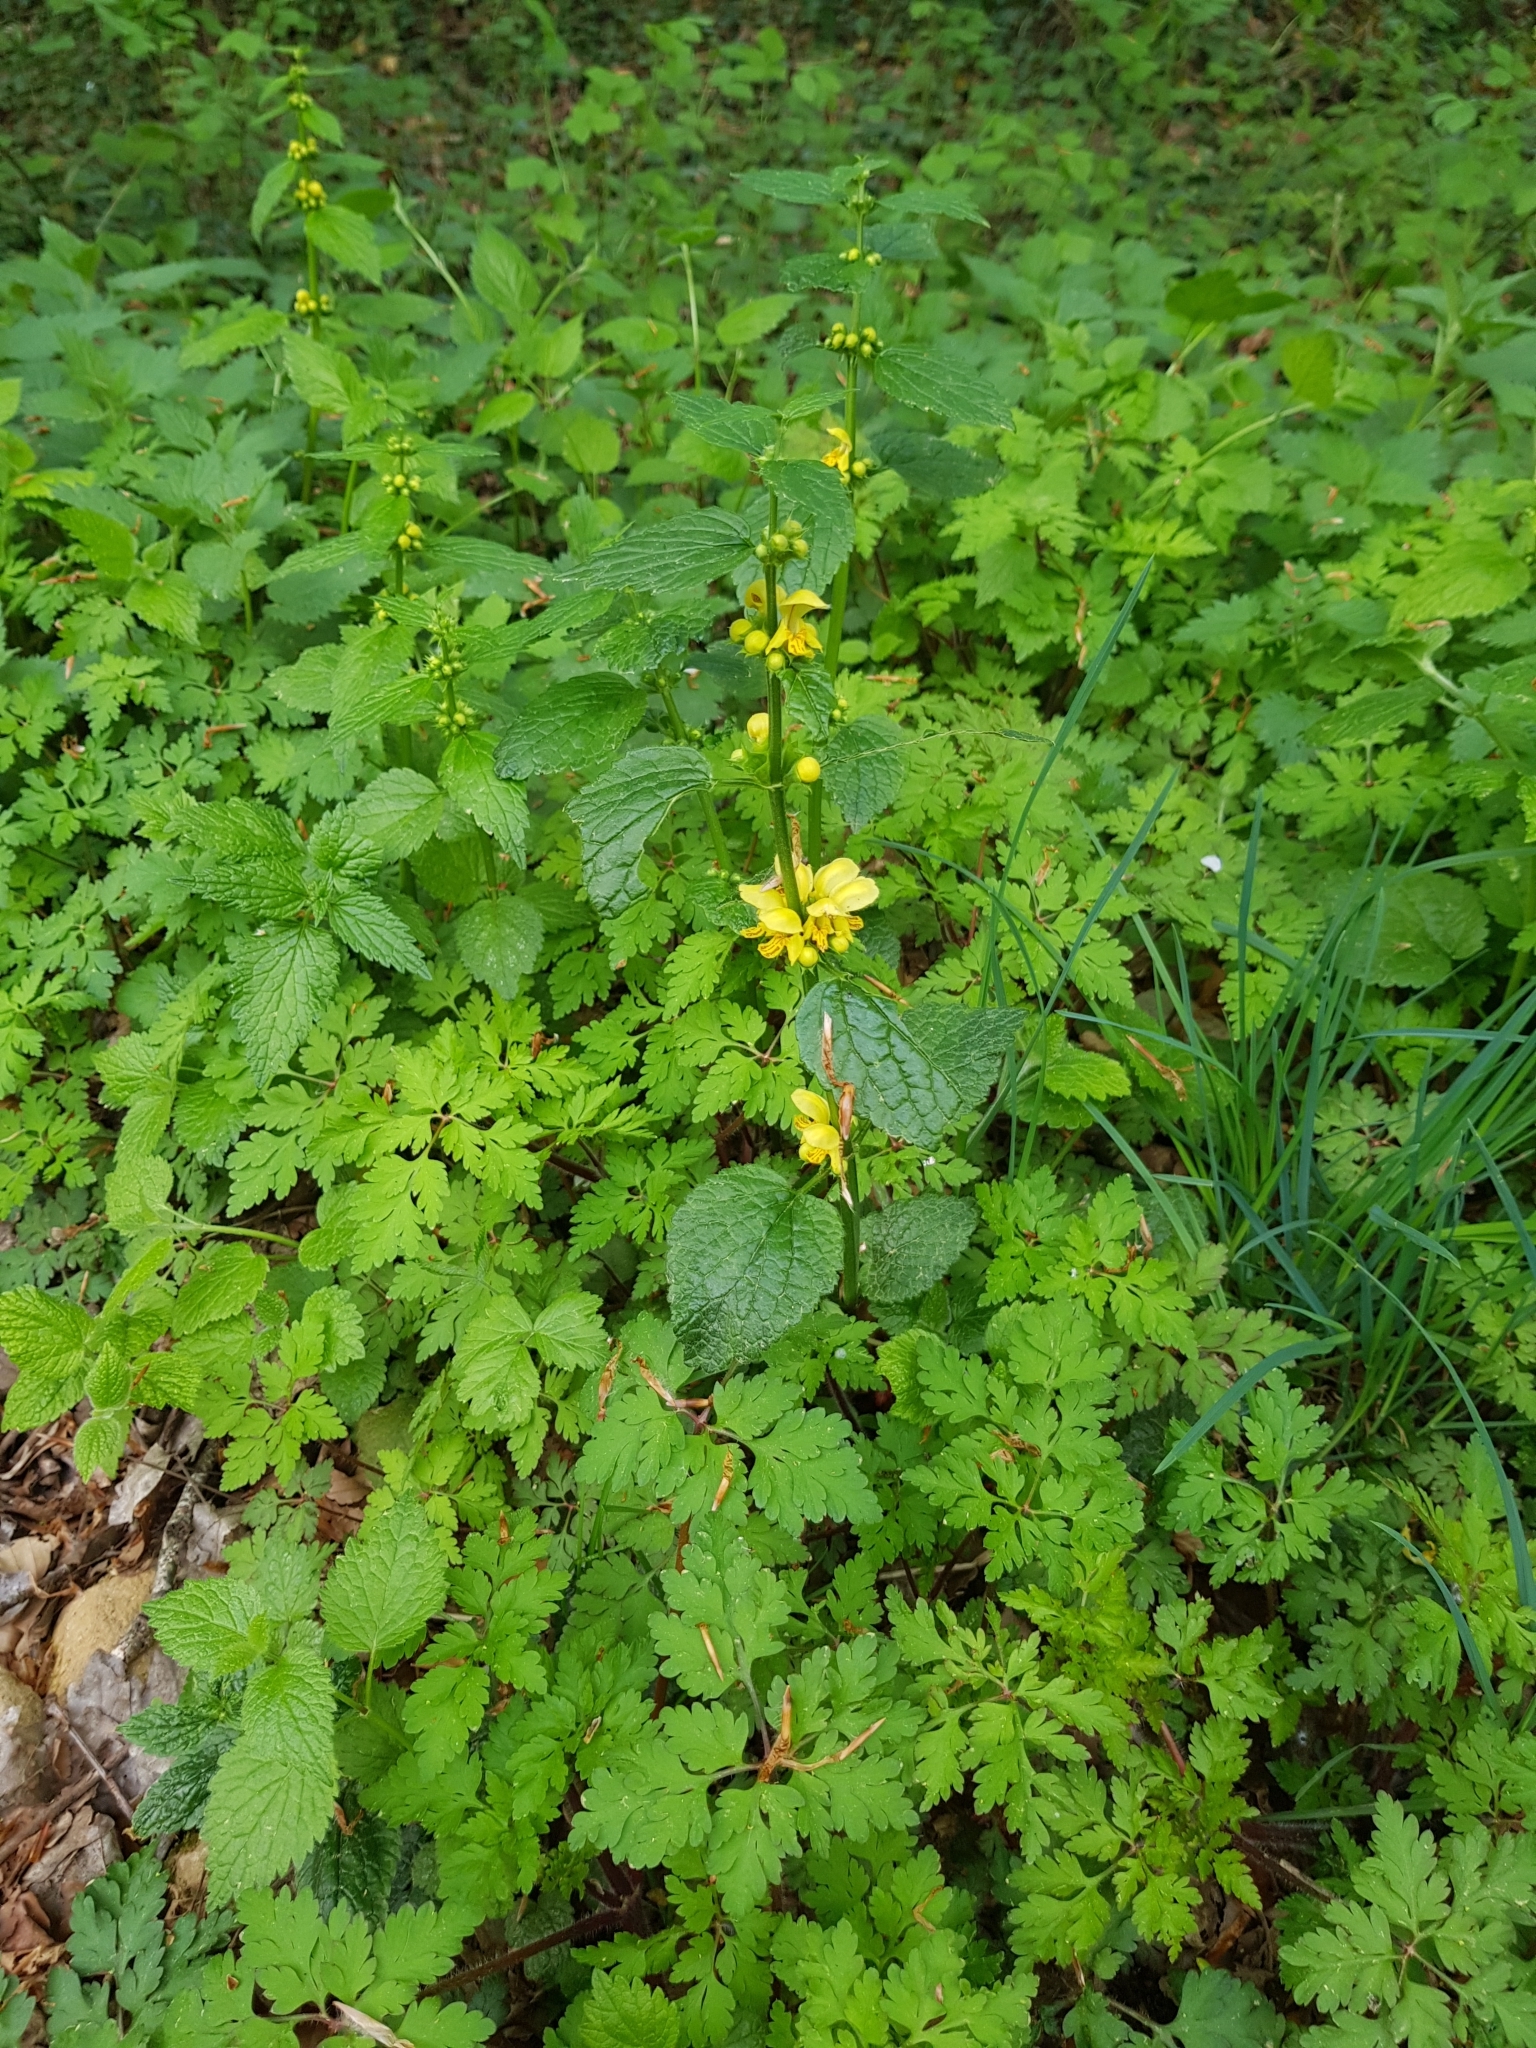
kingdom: Plantae
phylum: Tracheophyta
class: Magnoliopsida
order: Lamiales
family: Lamiaceae
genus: Lamium
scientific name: Lamium galeobdolon
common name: Yellow archangel
